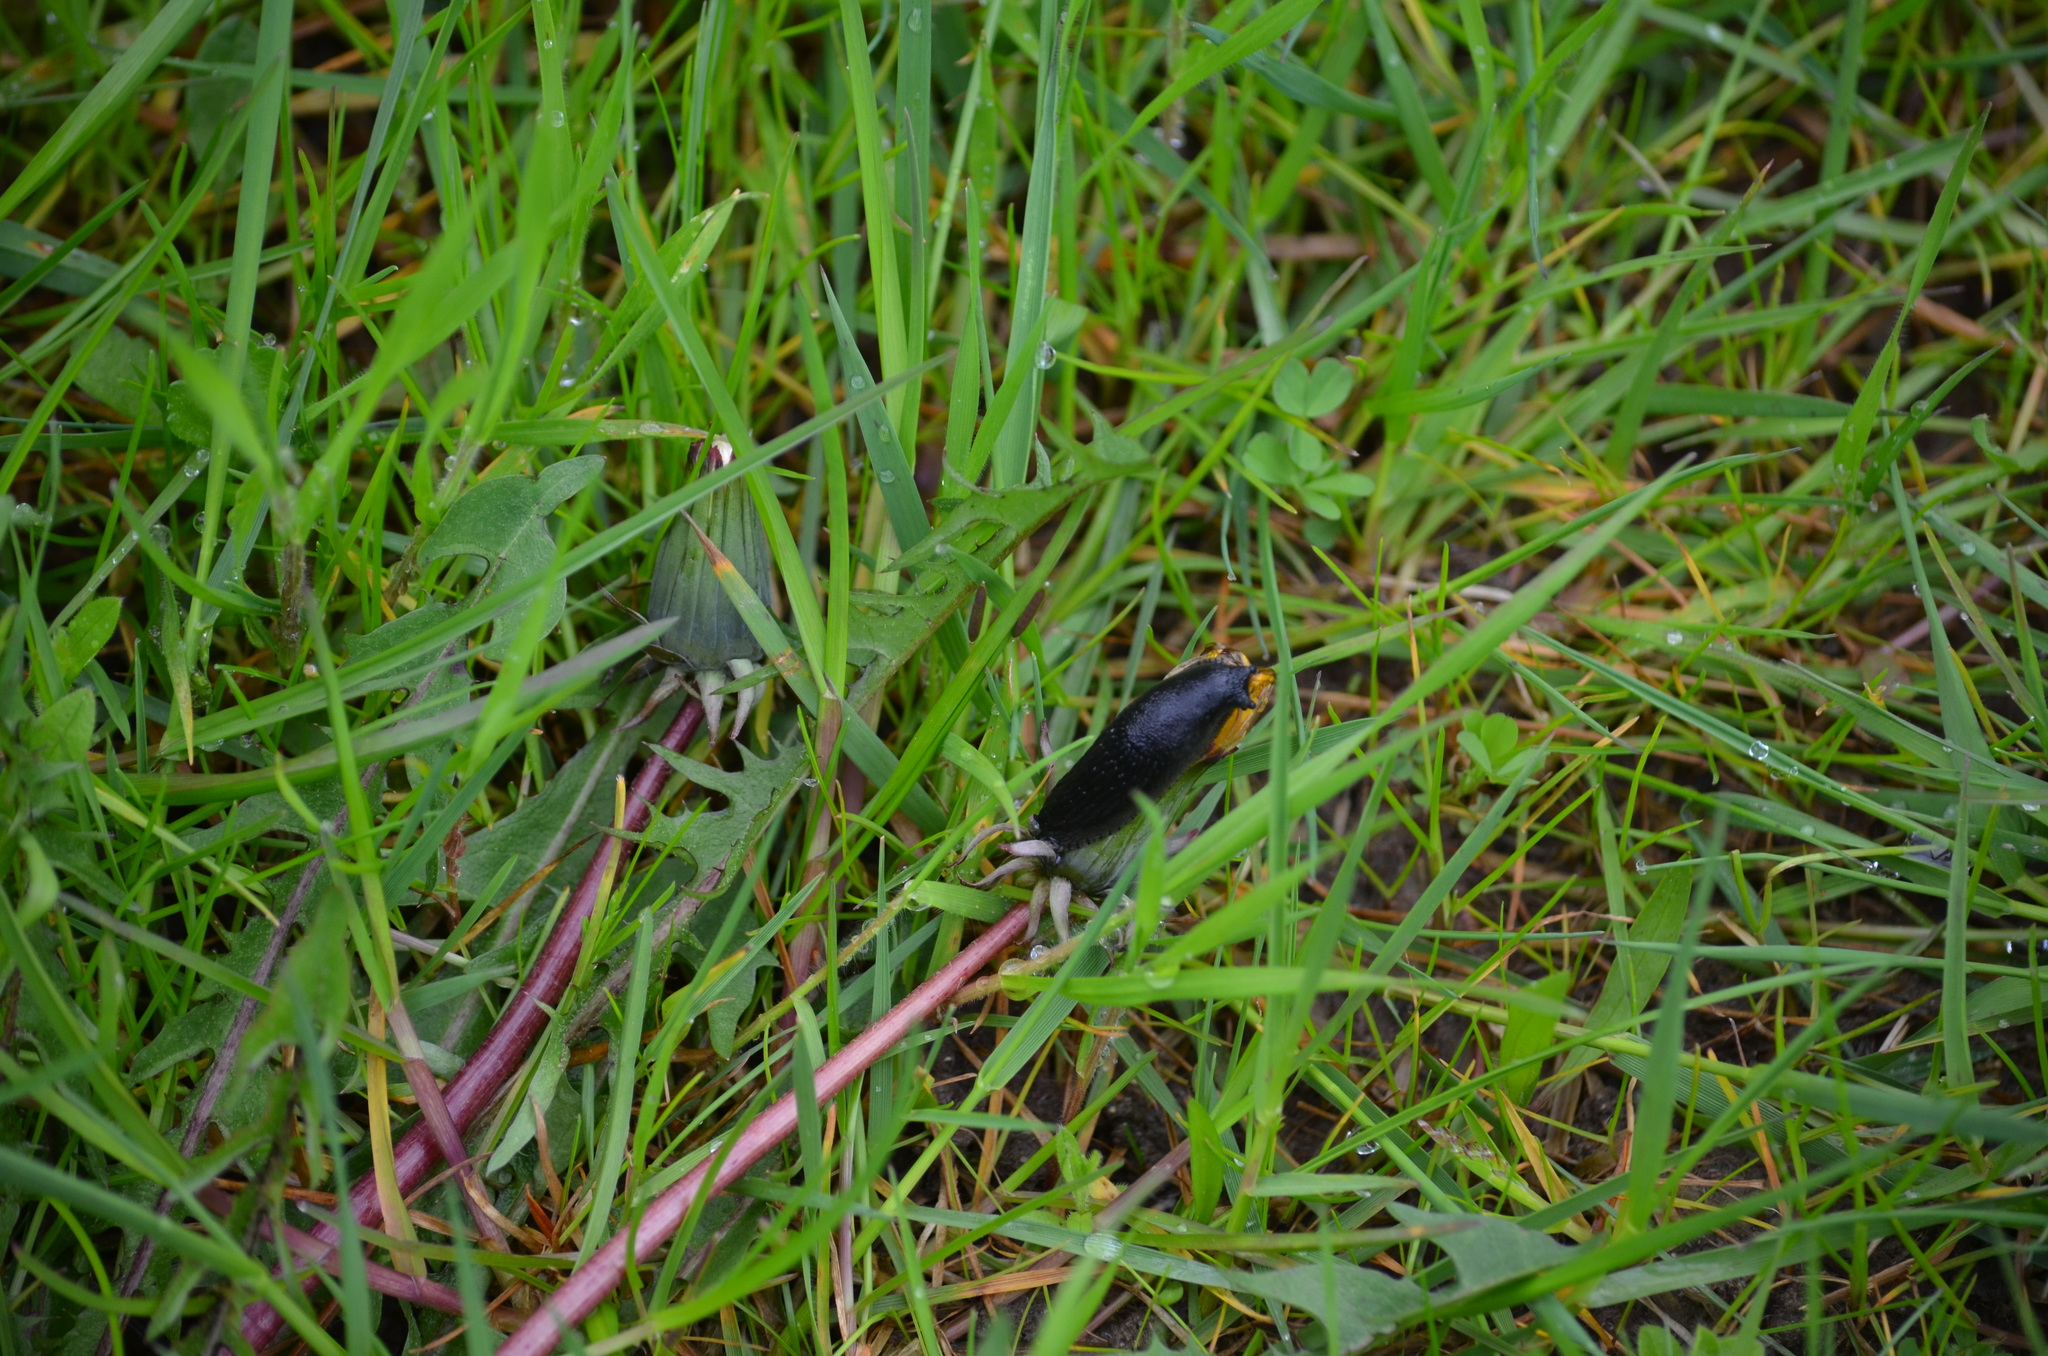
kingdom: Animalia
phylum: Mollusca
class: Gastropoda
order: Stylommatophora
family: Arionidae
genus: Arion
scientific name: Arion
